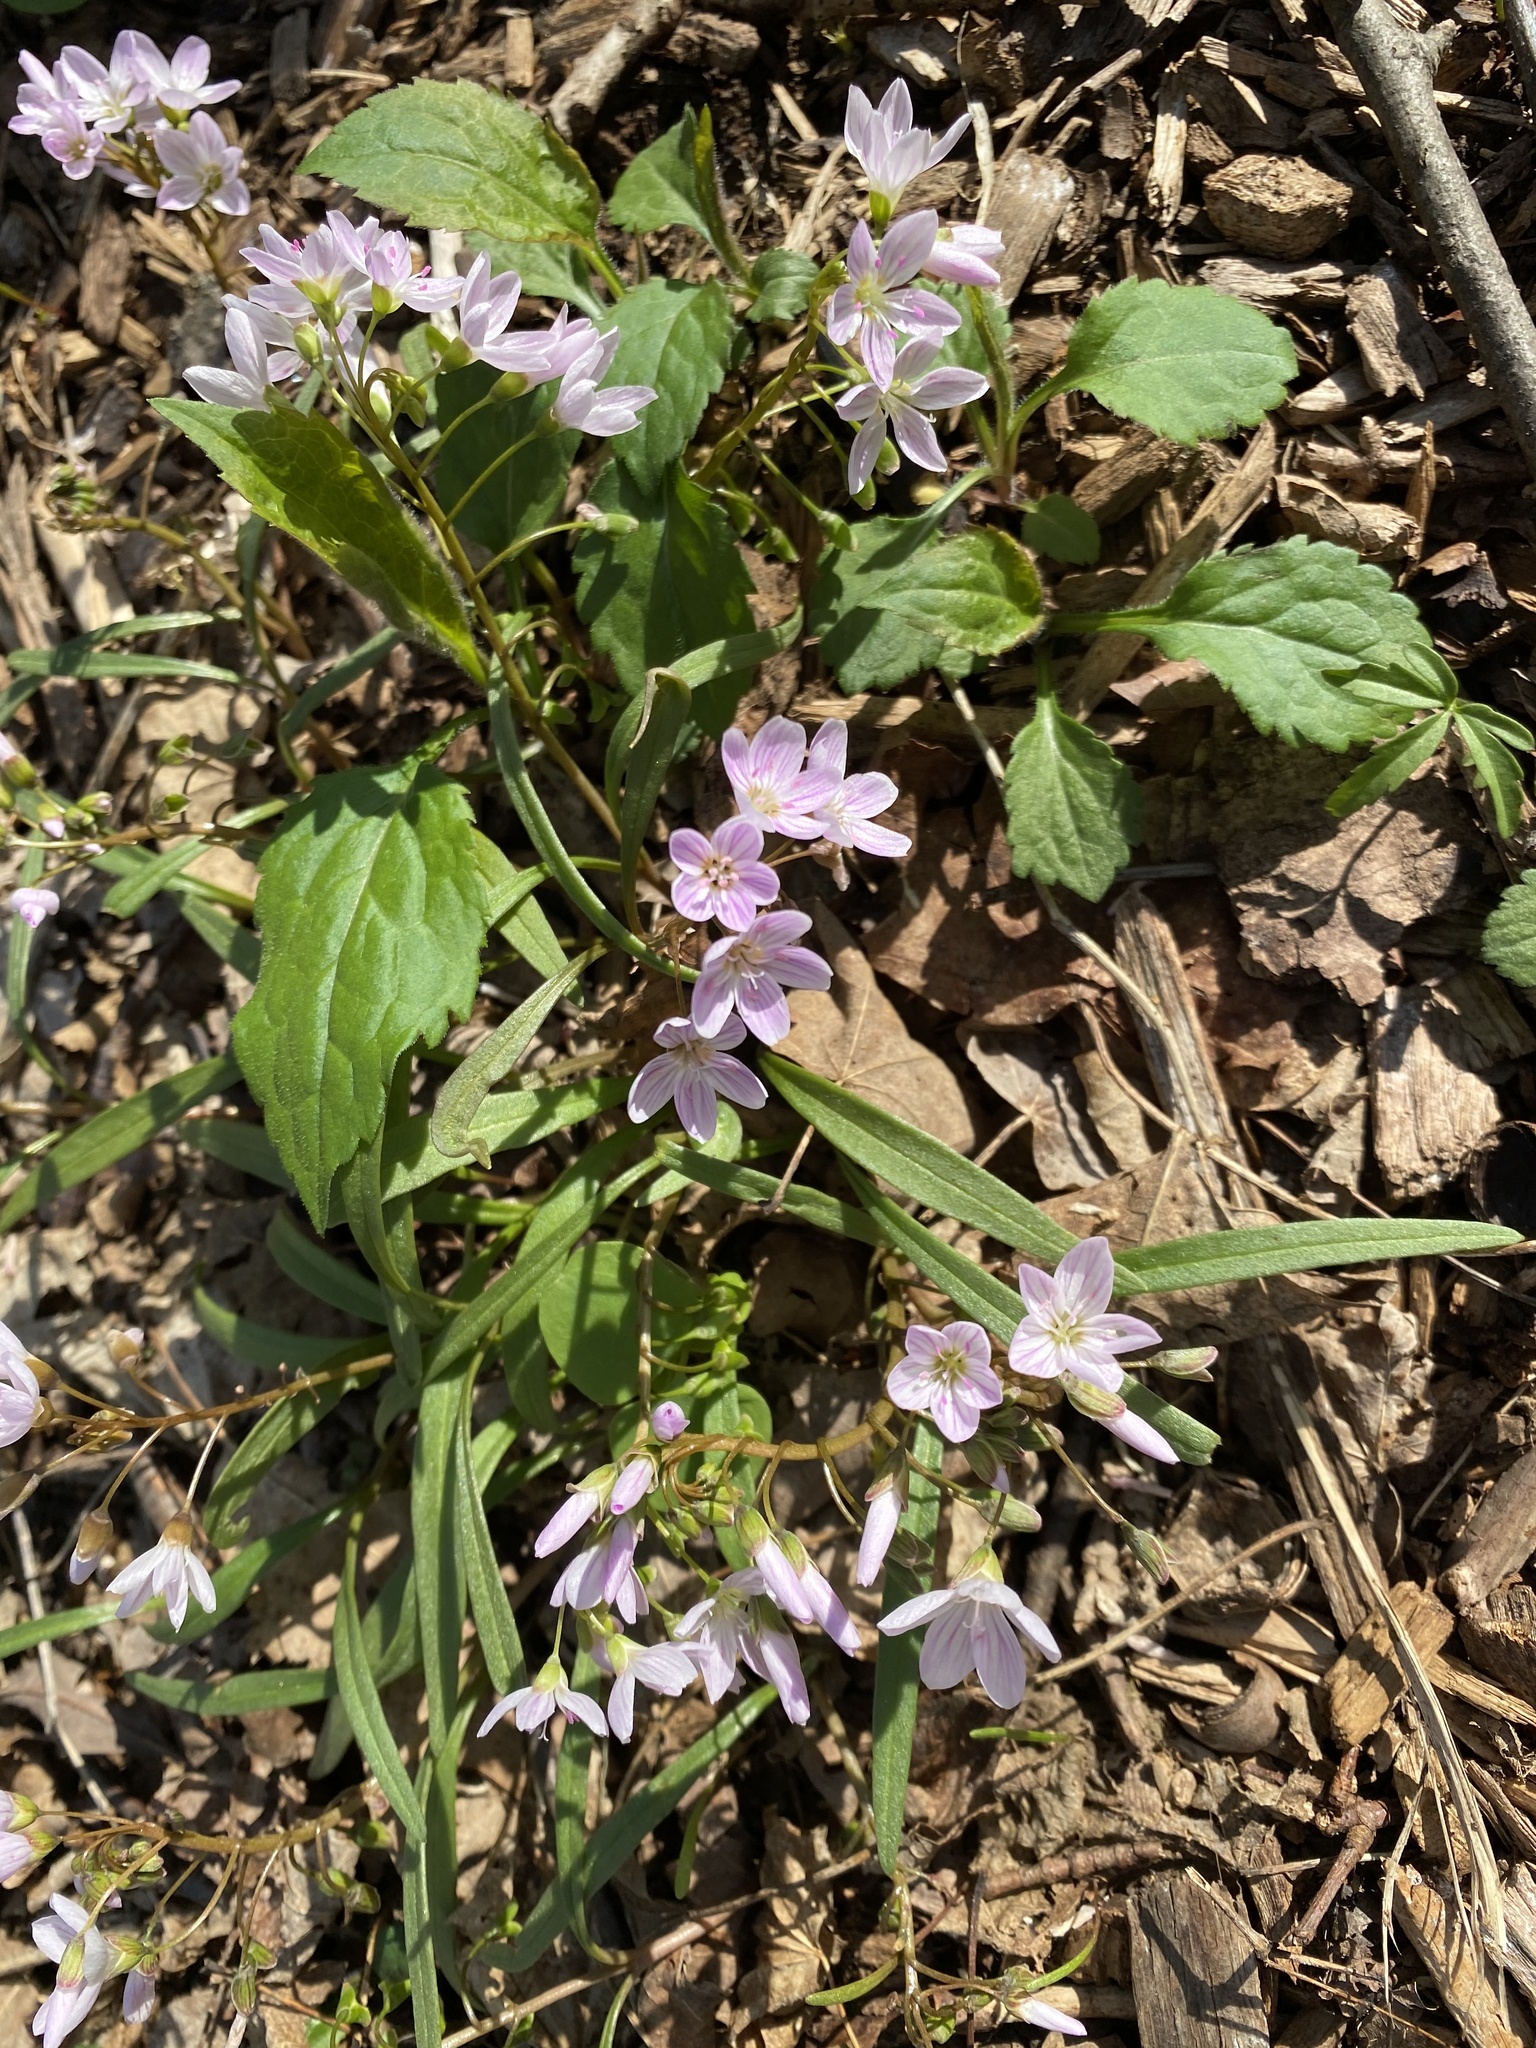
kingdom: Plantae
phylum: Tracheophyta
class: Magnoliopsida
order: Caryophyllales
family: Montiaceae
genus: Claytonia
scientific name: Claytonia virginica
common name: Virginia springbeauty
